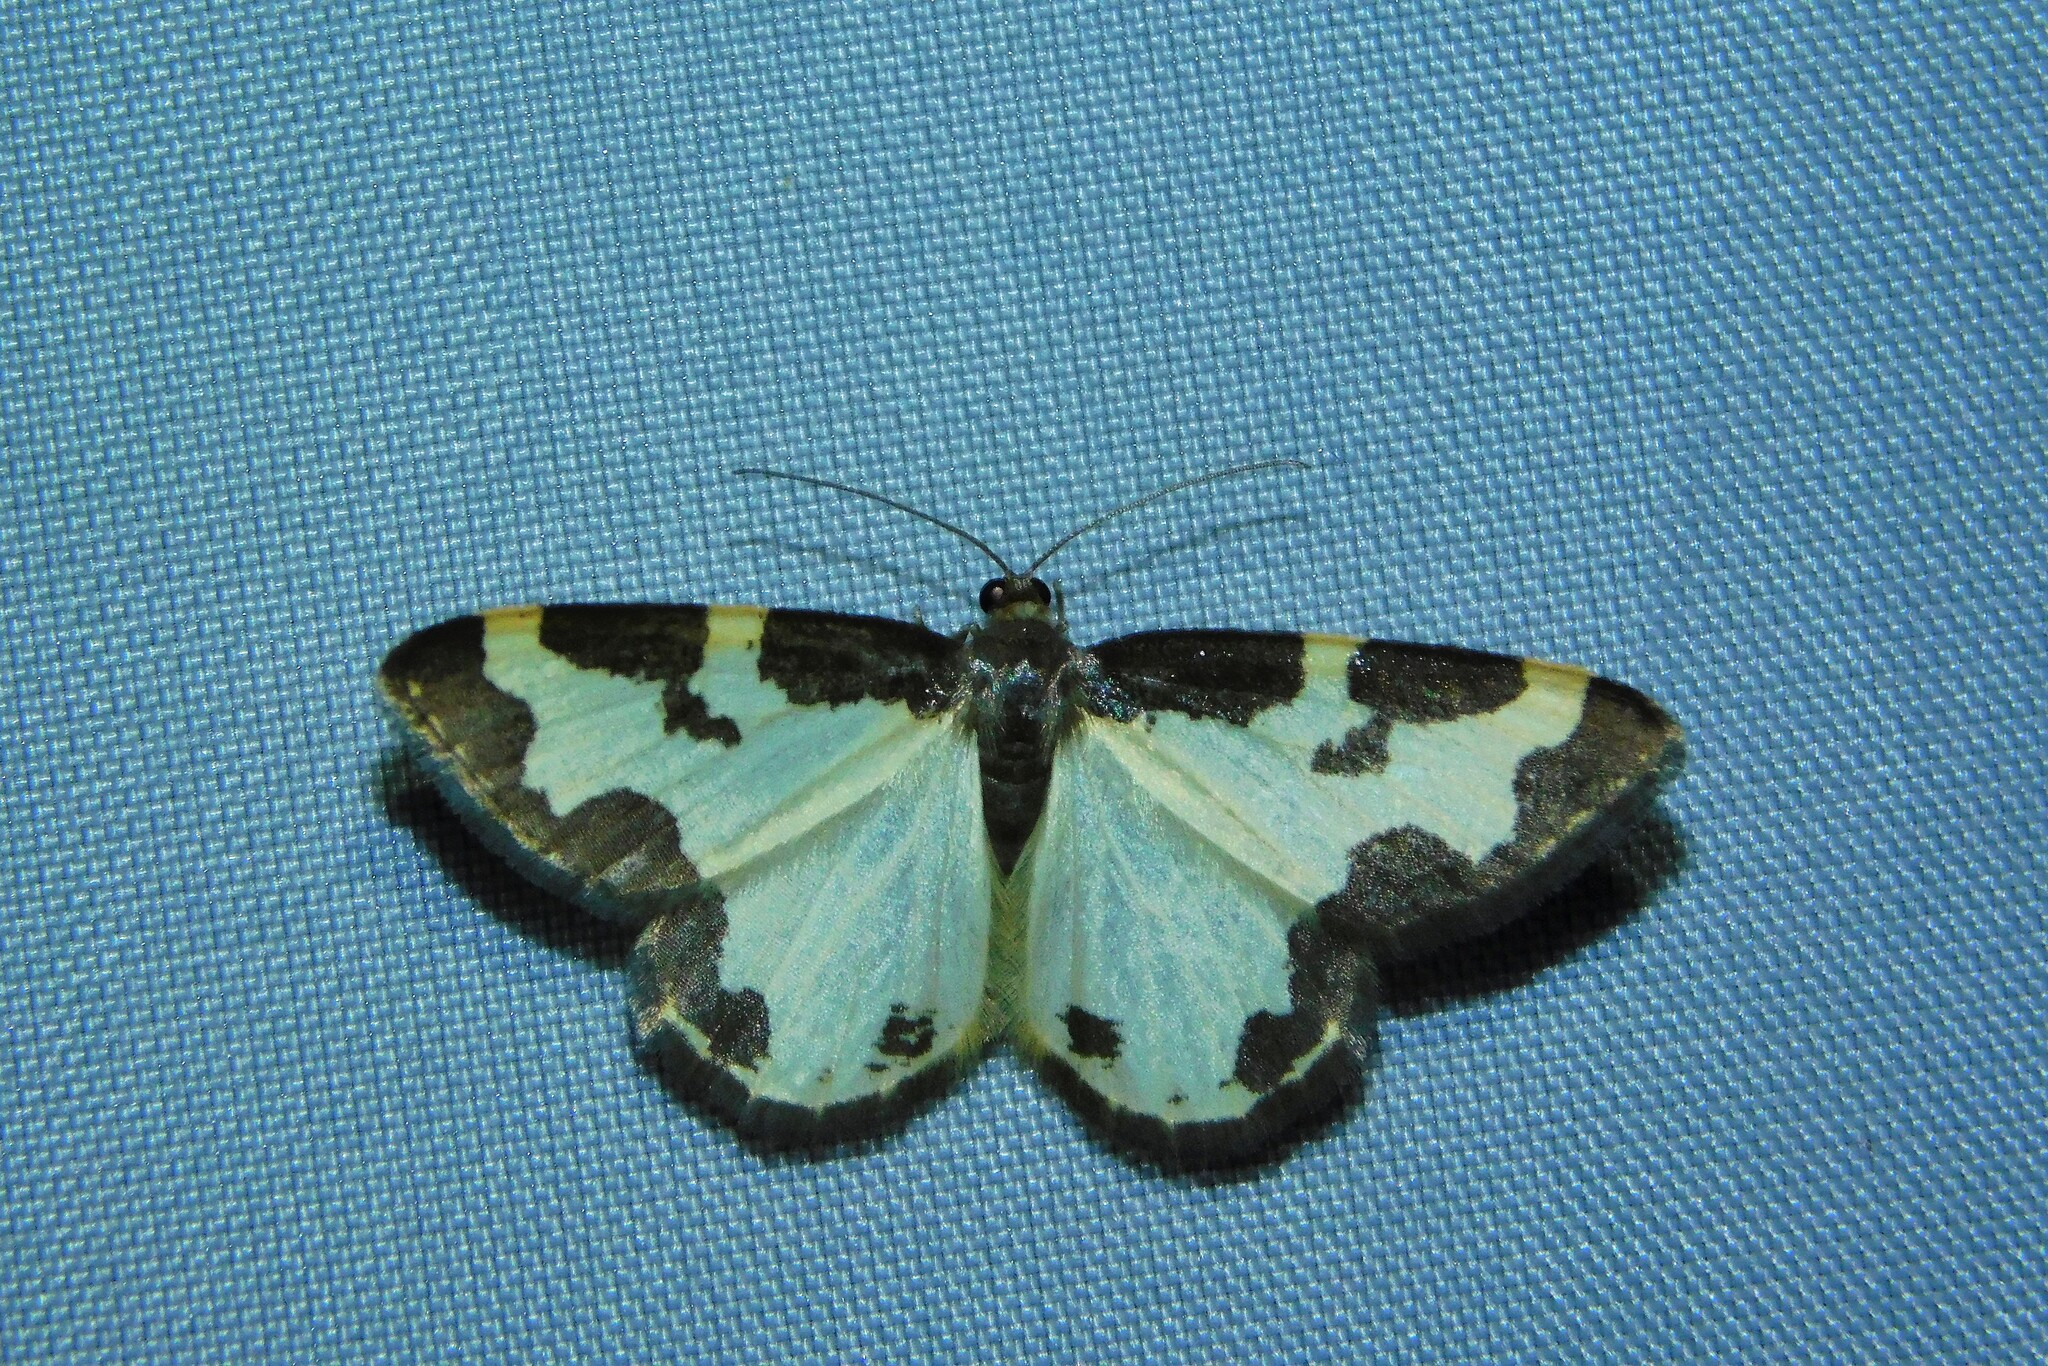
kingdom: Animalia
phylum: Arthropoda
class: Insecta
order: Lepidoptera
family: Geometridae
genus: Lomaspilis
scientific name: Lomaspilis marginata
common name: Clouded border
